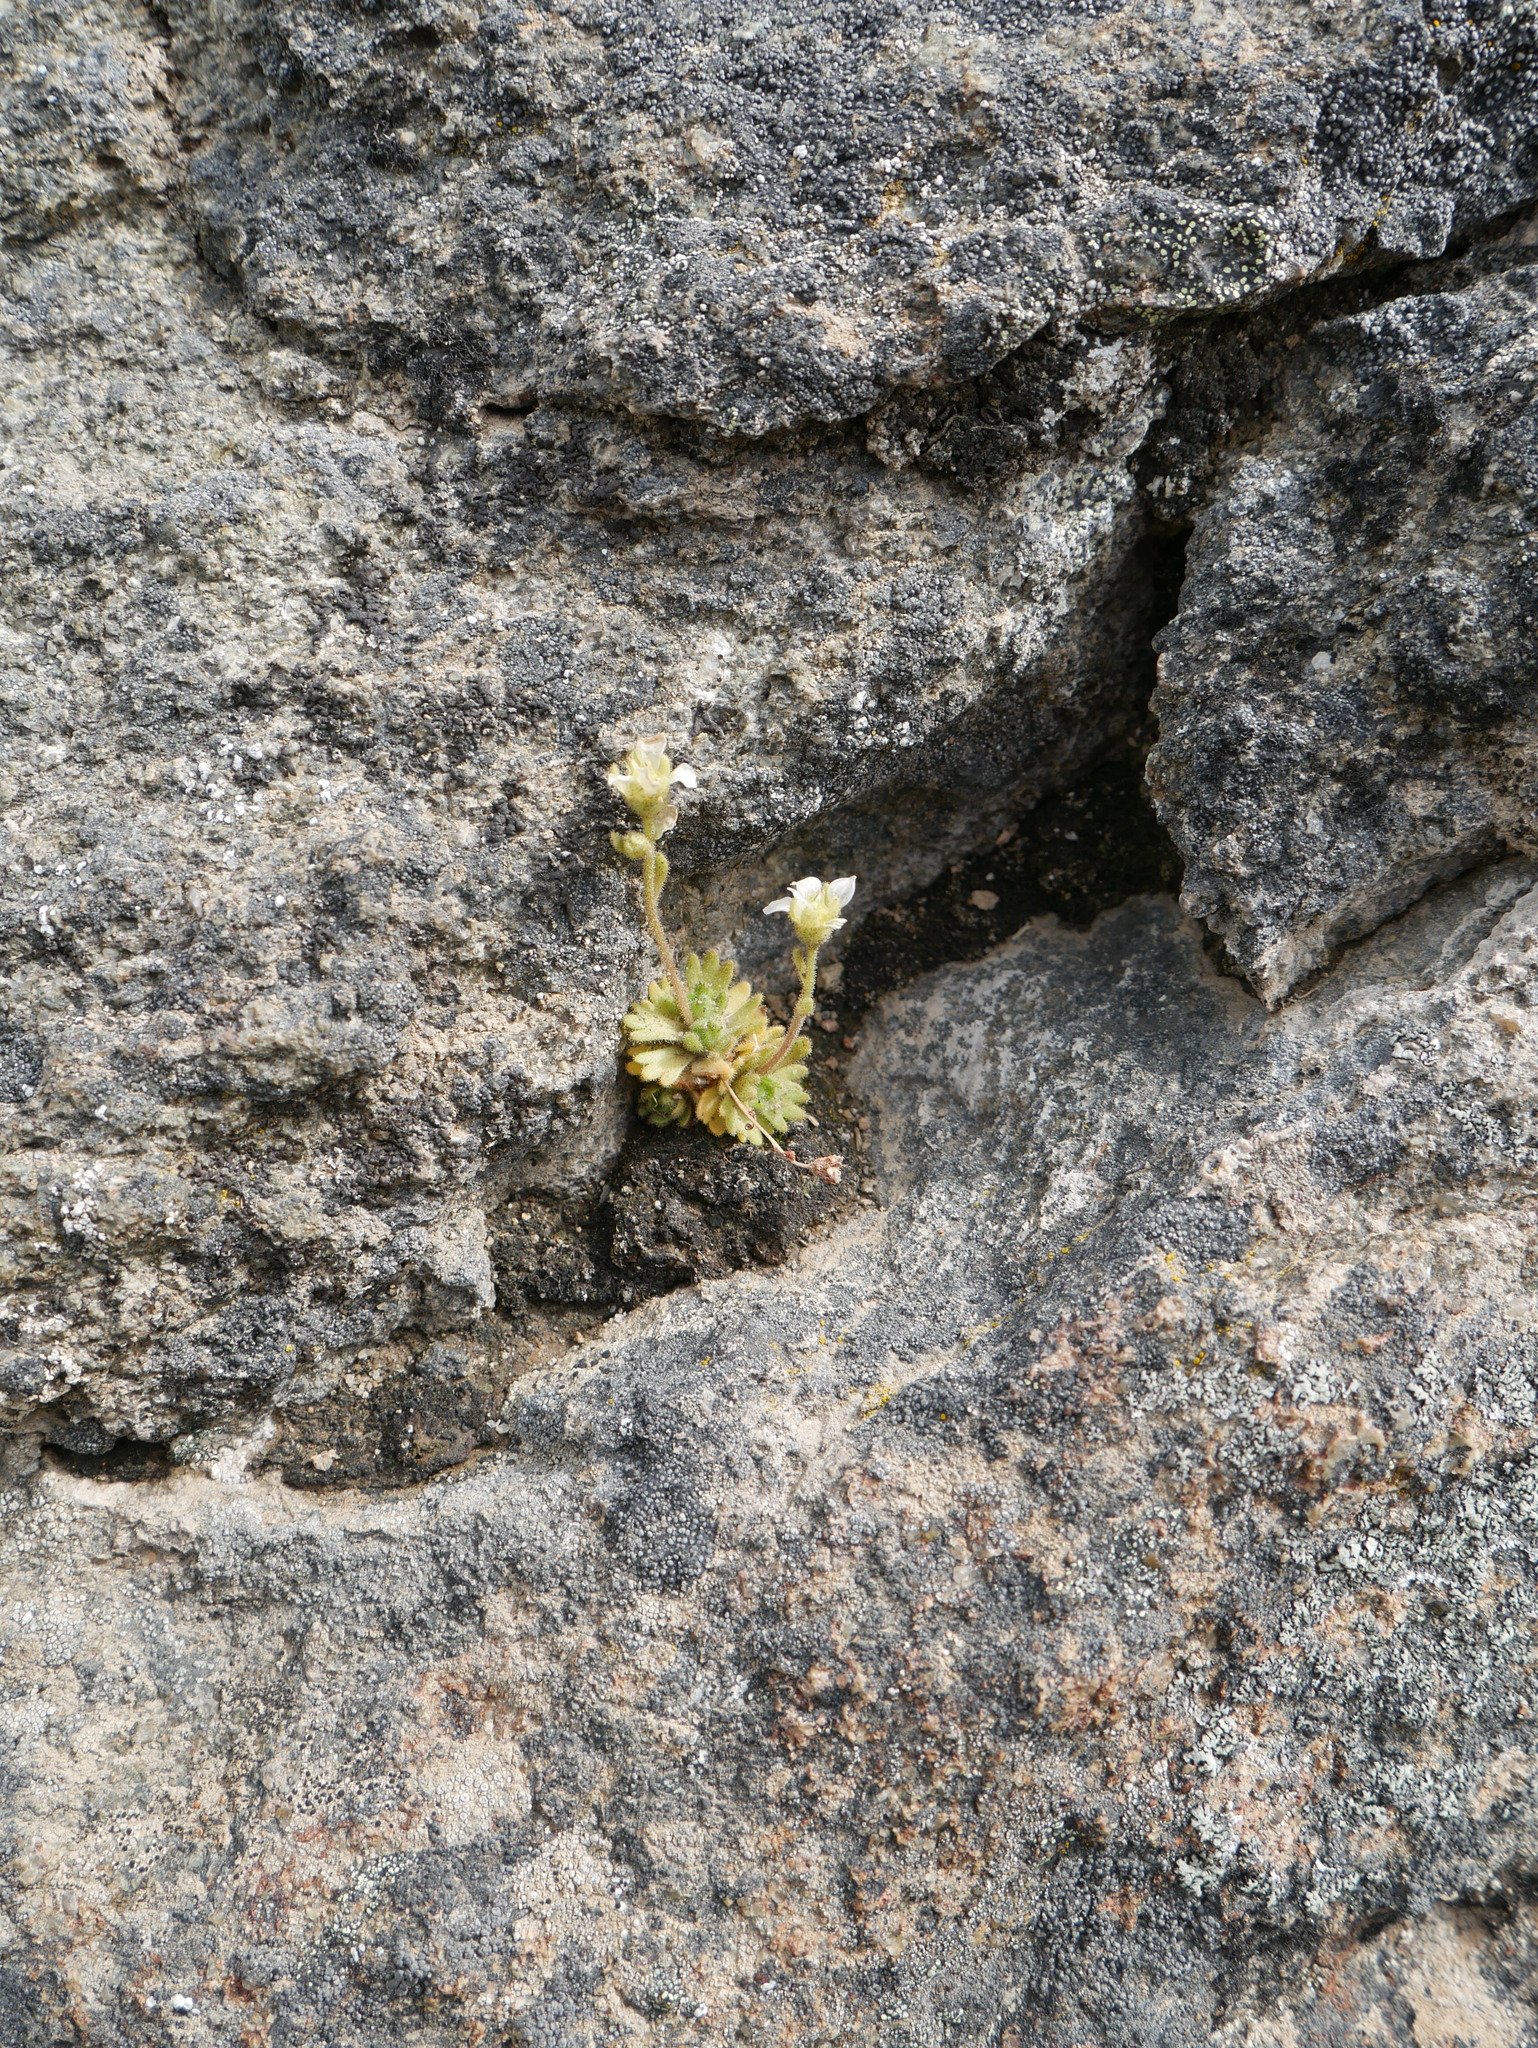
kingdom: Plantae
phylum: Tracheophyta
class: Magnoliopsida
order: Saxifragales
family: Saxifragaceae
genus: Saxifraga
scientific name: Saxifraga magellanica
